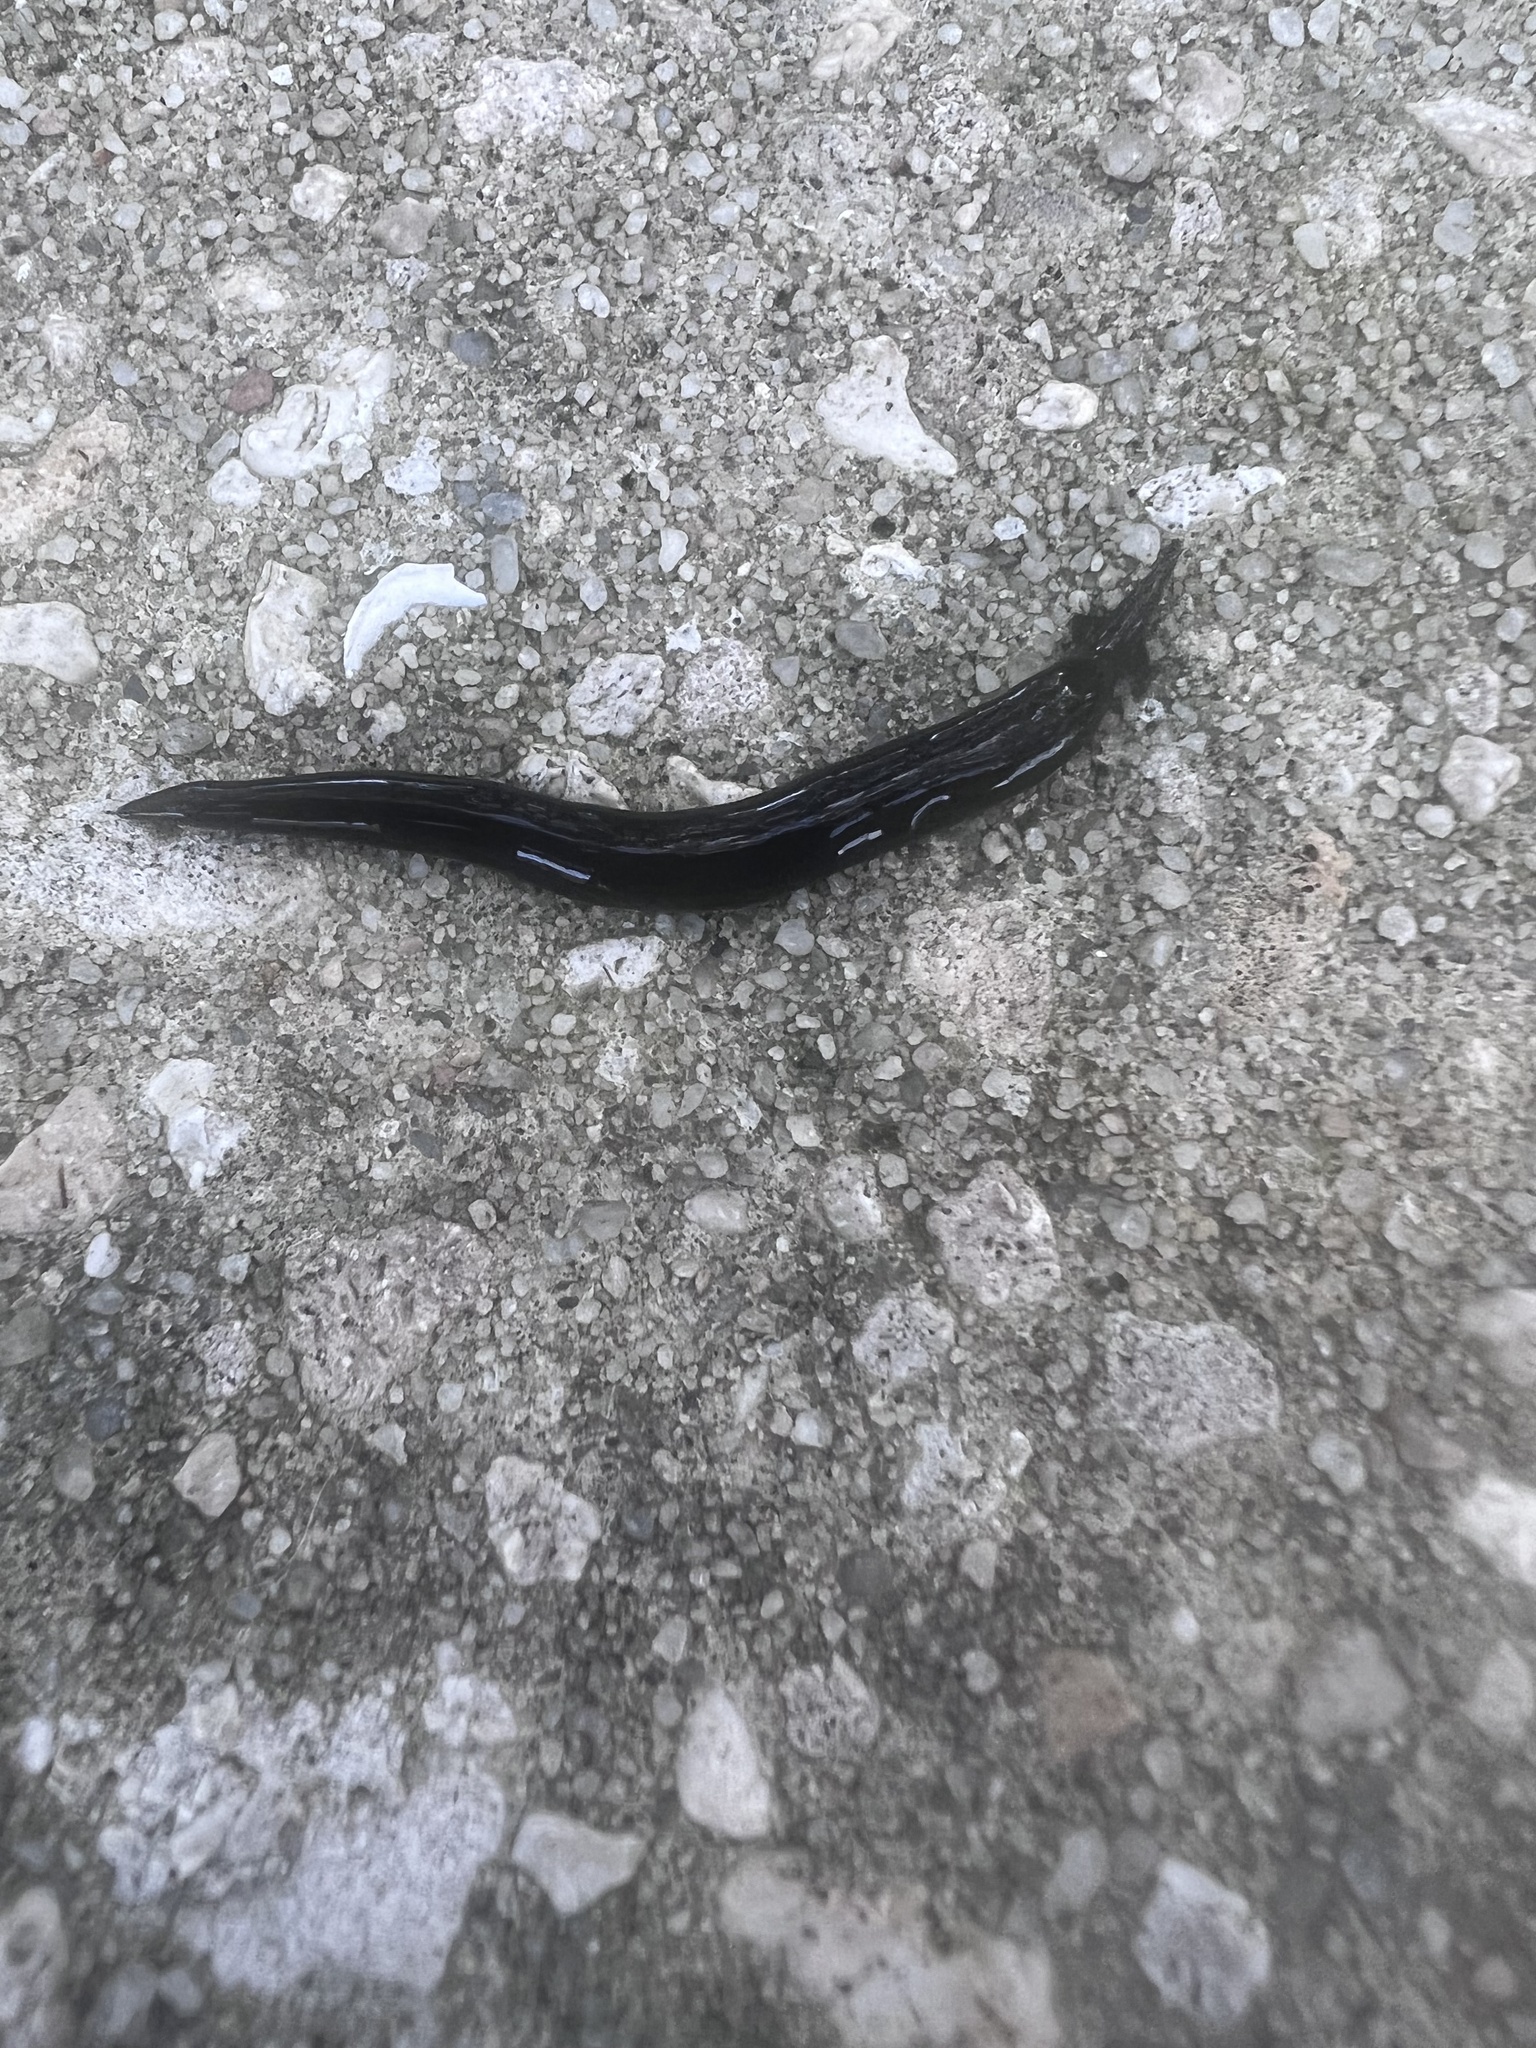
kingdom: Animalia
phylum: Platyhelminthes
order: Tricladida
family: Geoplanidae
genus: Platydemus
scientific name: Platydemus manokwari
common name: New guinea flatworm
